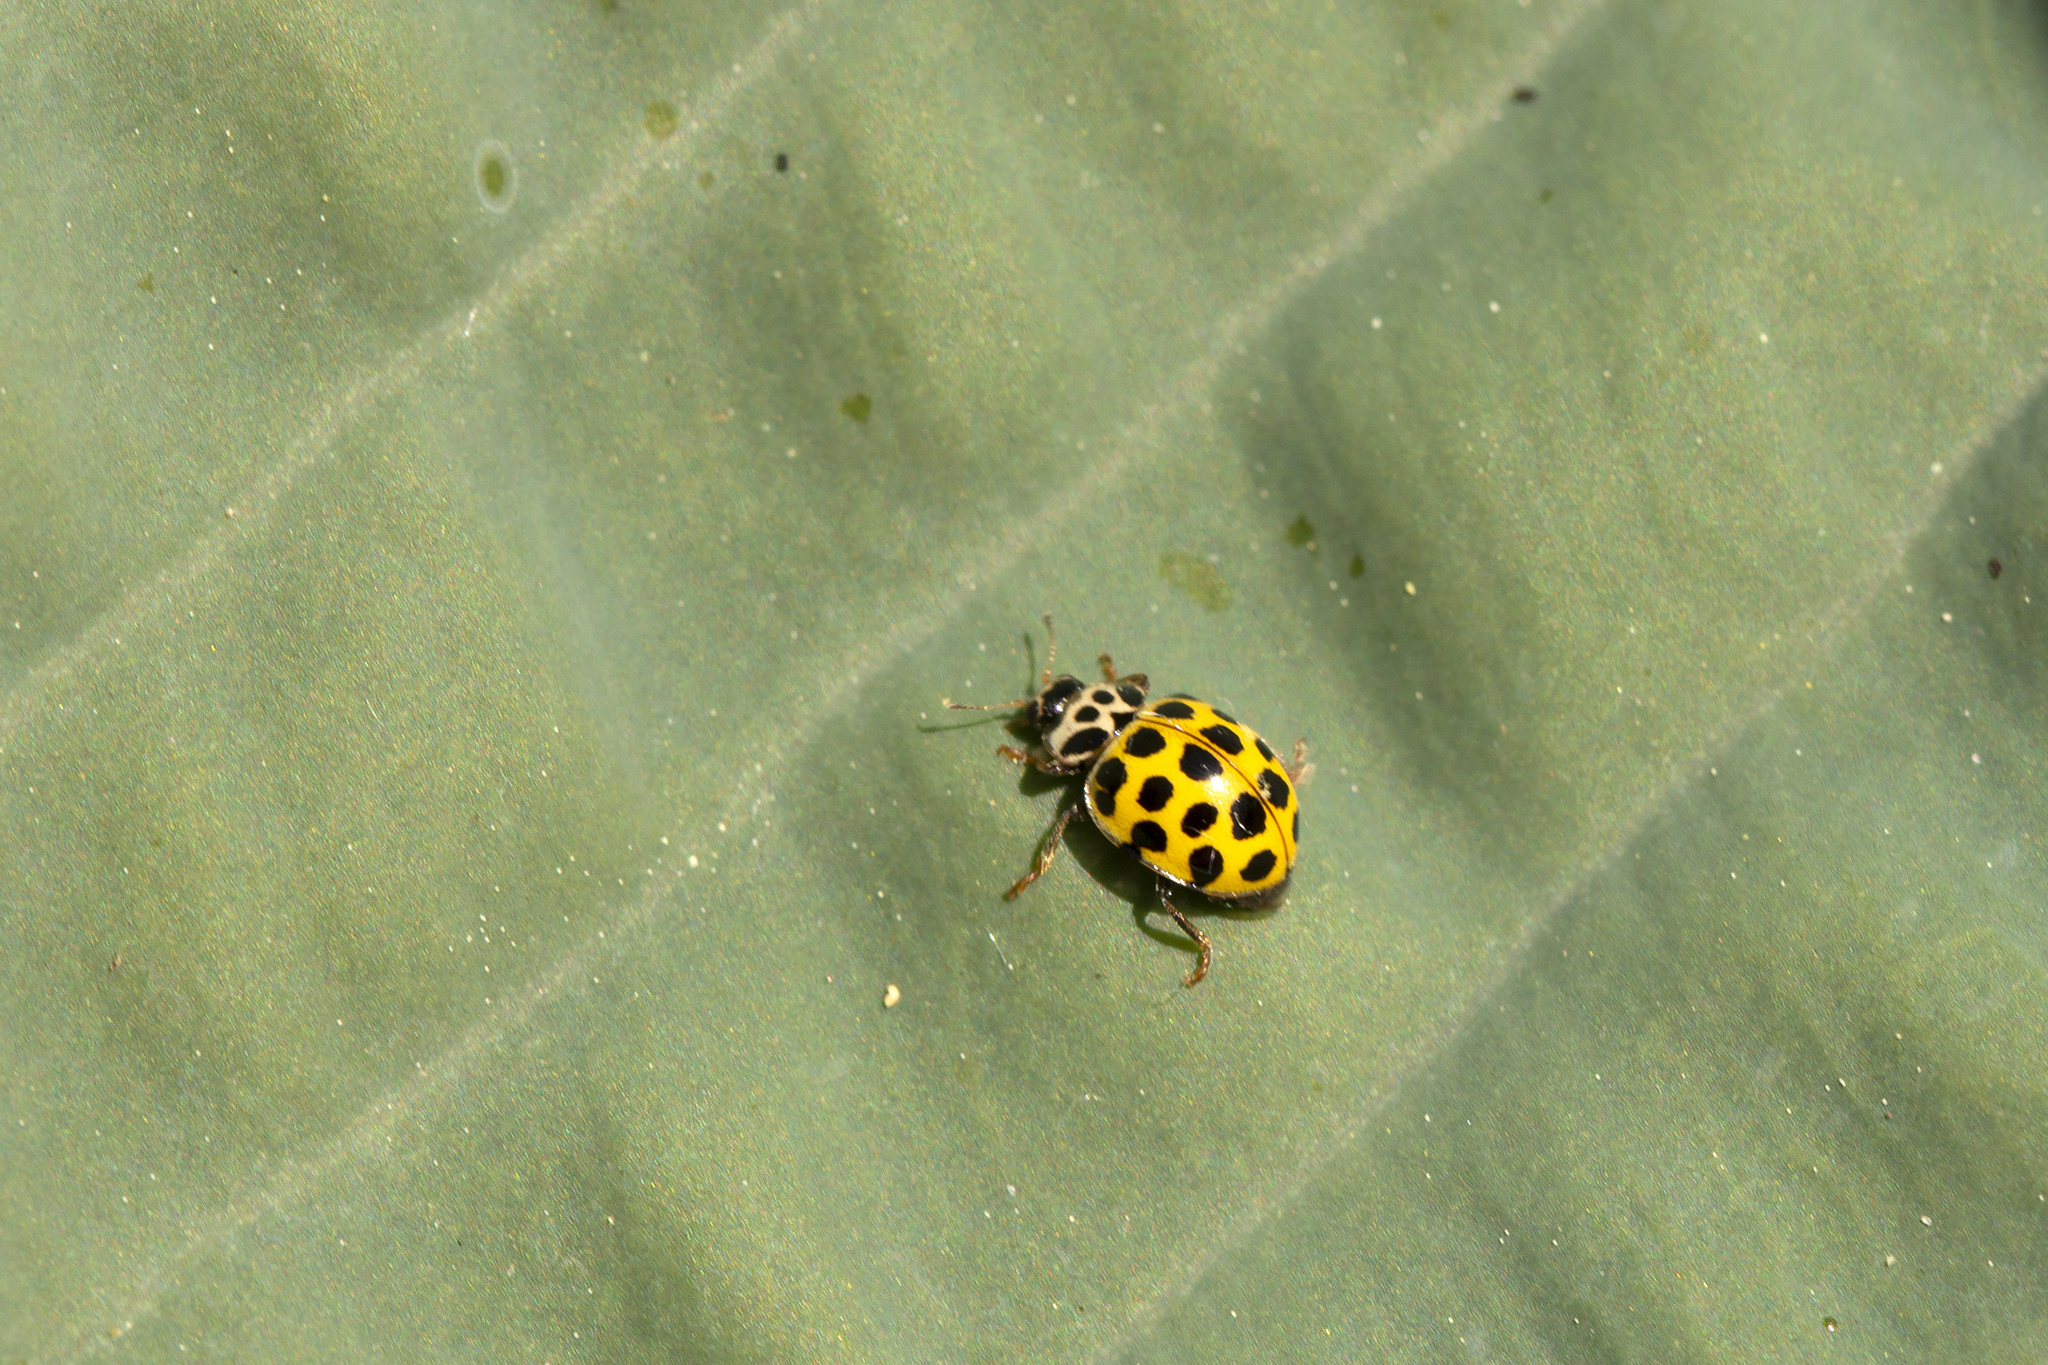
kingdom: Animalia
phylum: Arthropoda
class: Insecta
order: Coleoptera
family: Coccinellidae
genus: Psyllobora
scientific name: Psyllobora vigintiduopunctata
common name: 22-spot ladybird
